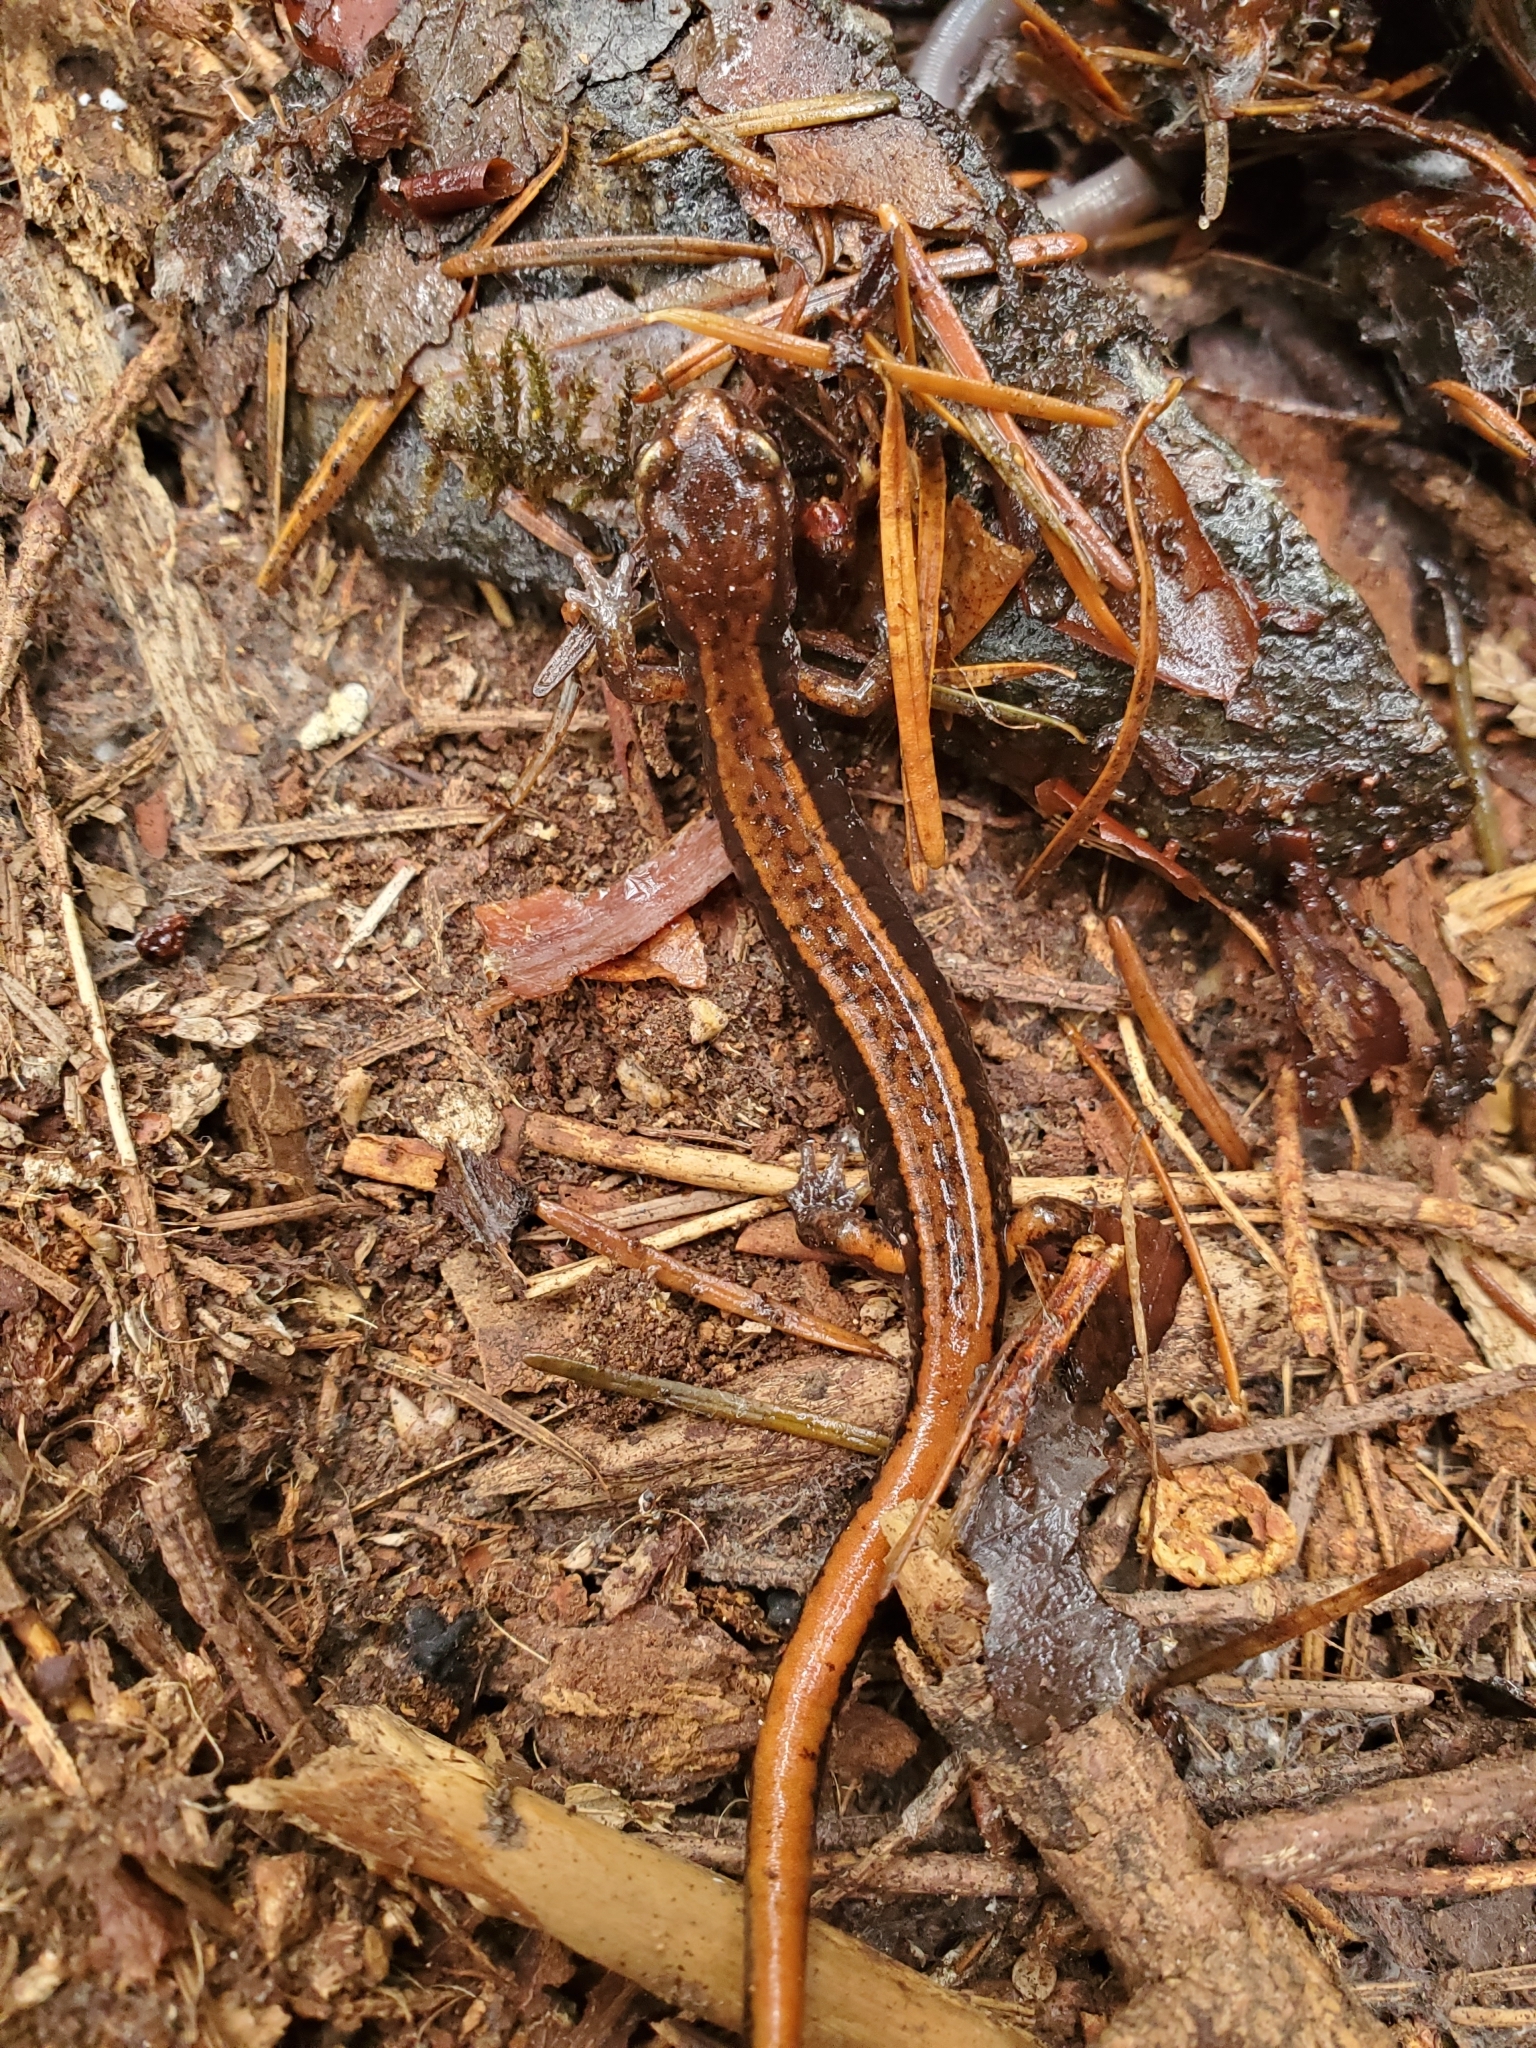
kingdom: Animalia
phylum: Chordata
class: Amphibia
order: Caudata
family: Plethodontidae
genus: Plethodon
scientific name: Plethodon vehiculum
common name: Western red-backed salamander
